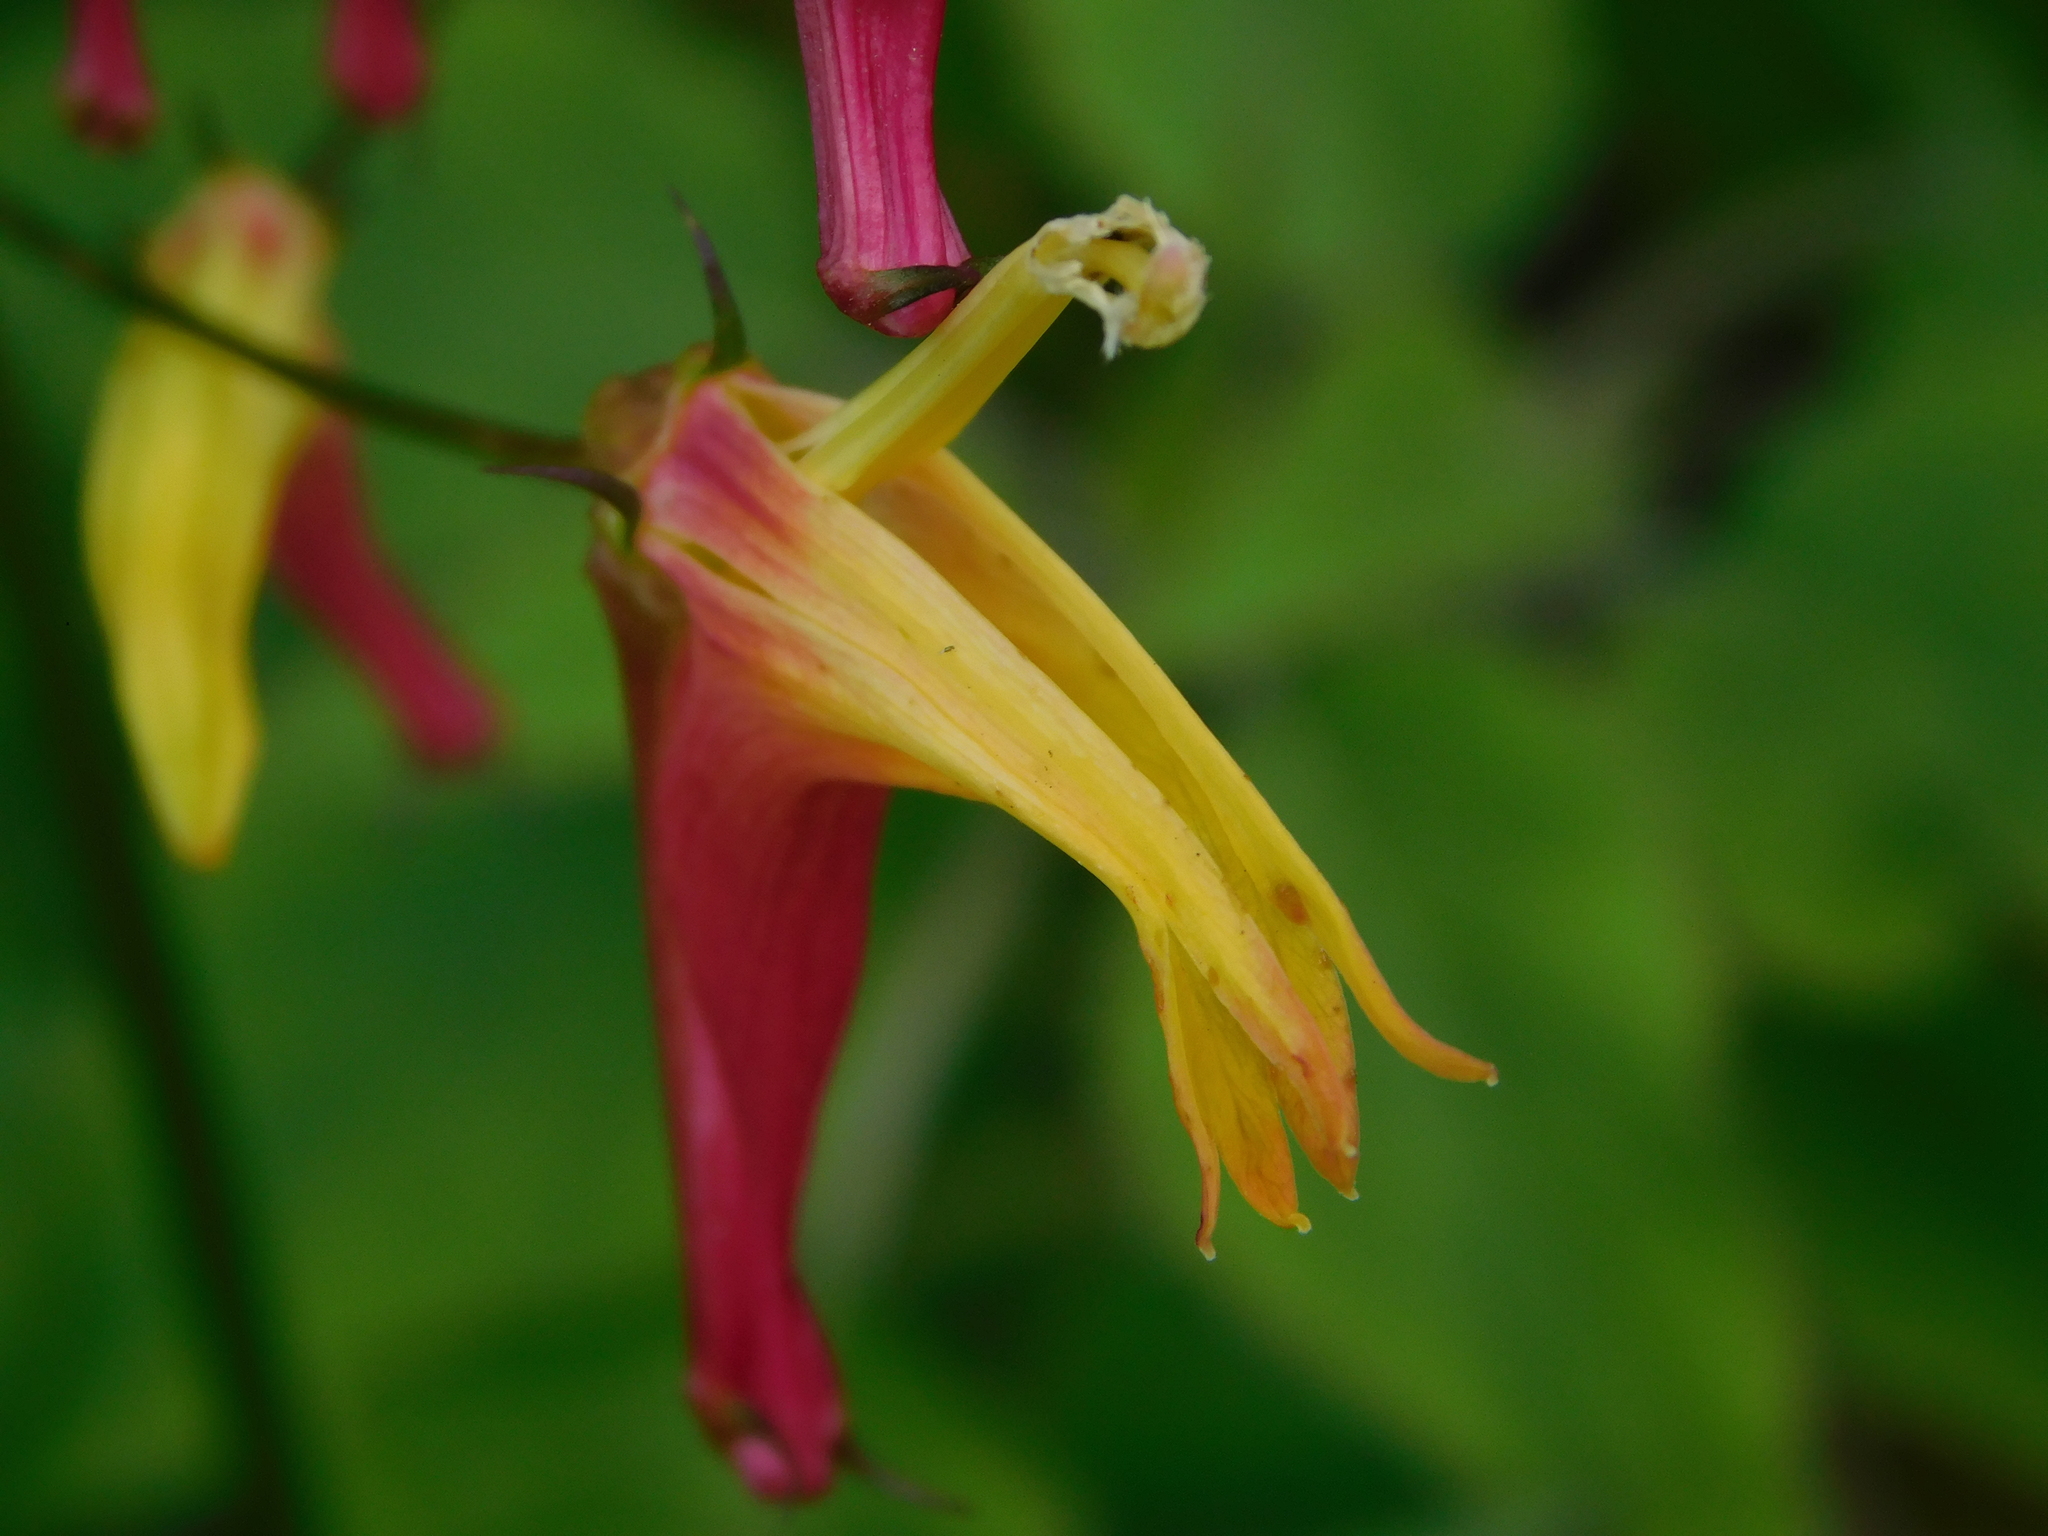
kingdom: Plantae
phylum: Tracheophyta
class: Magnoliopsida
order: Asterales
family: Campanulaceae
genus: Heterotoma
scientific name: Heterotoma lobelioides
